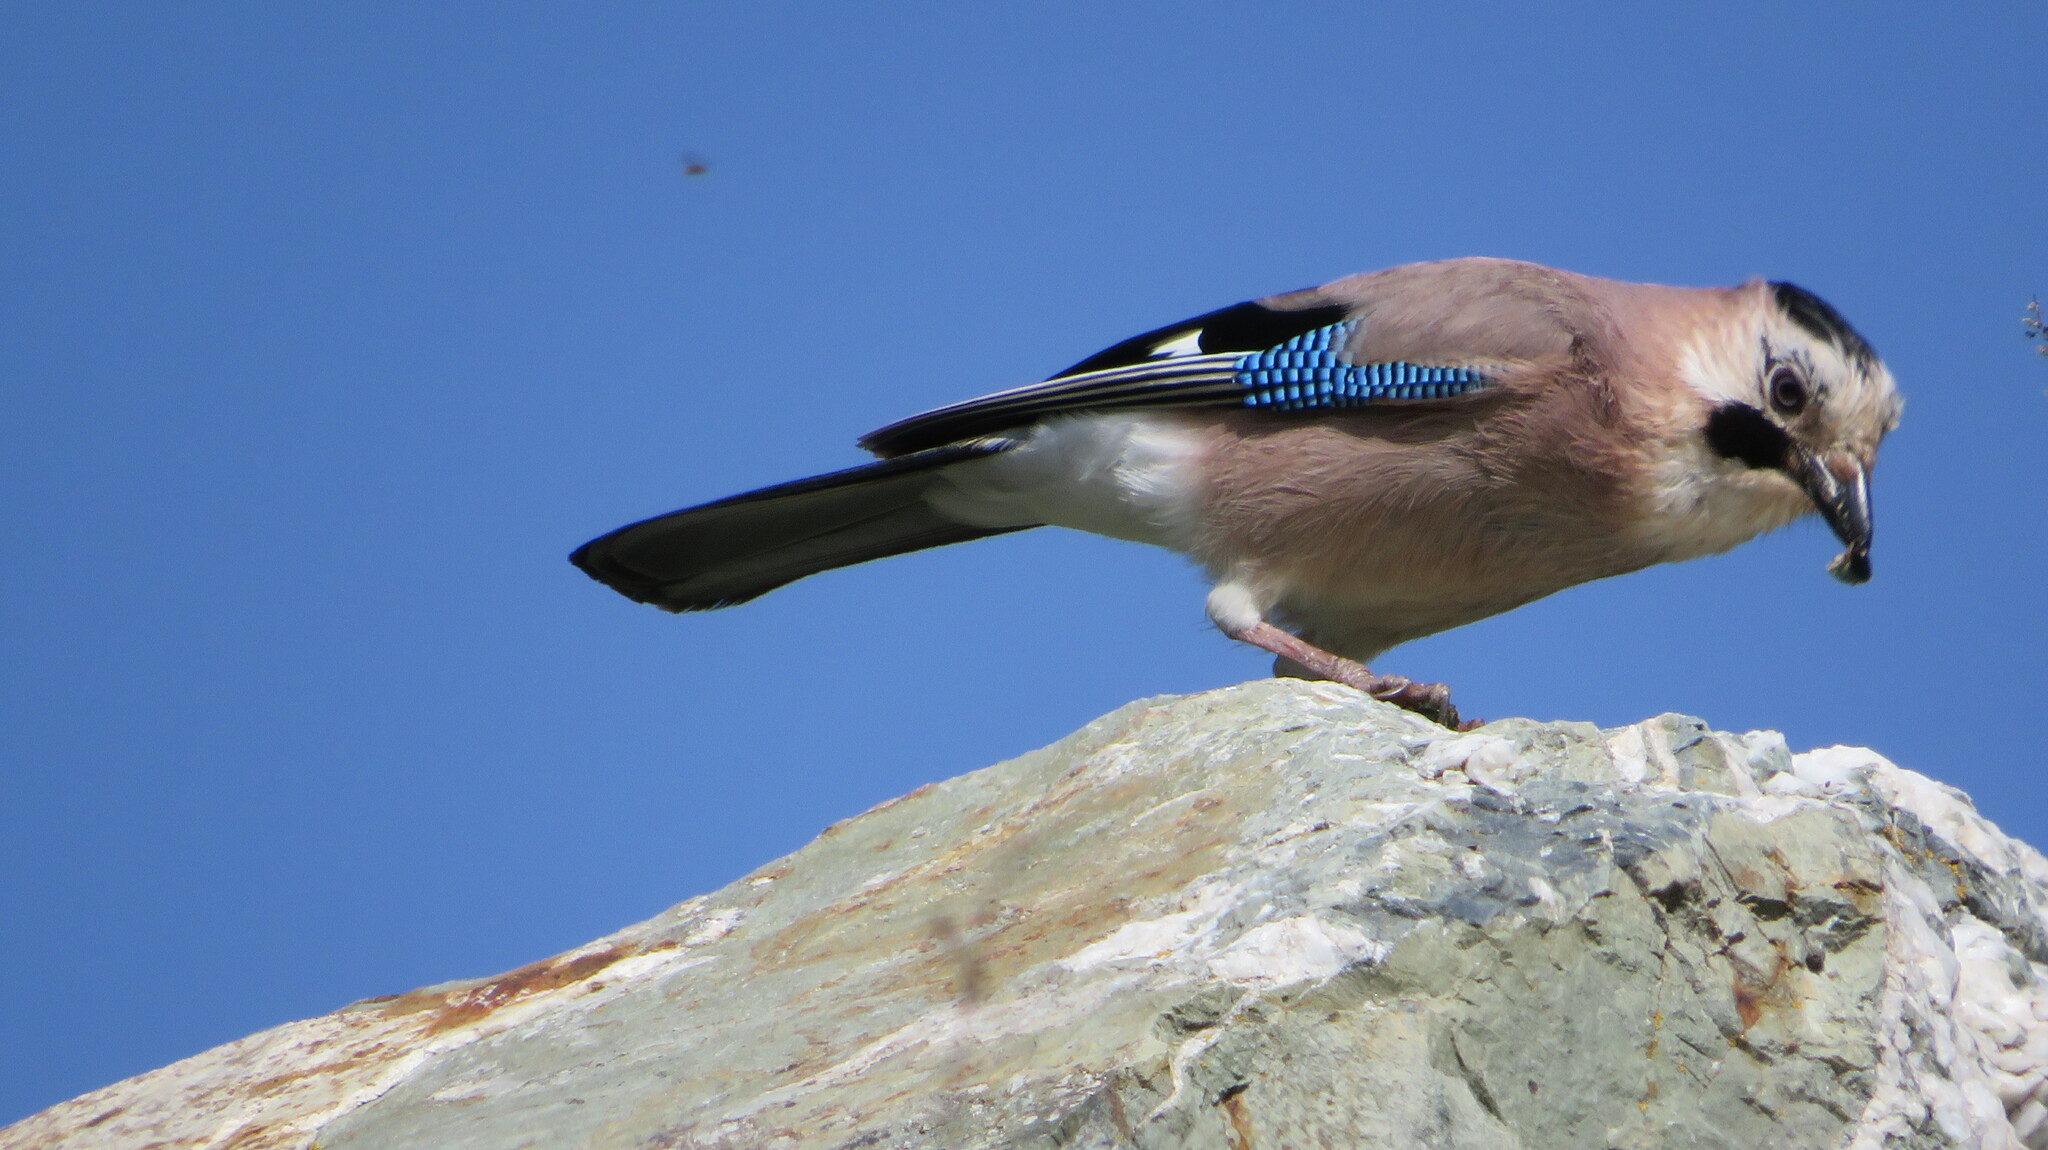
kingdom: Animalia
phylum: Chordata
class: Aves
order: Passeriformes
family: Corvidae
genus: Garrulus
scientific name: Garrulus glandarius
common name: Eurasian jay
